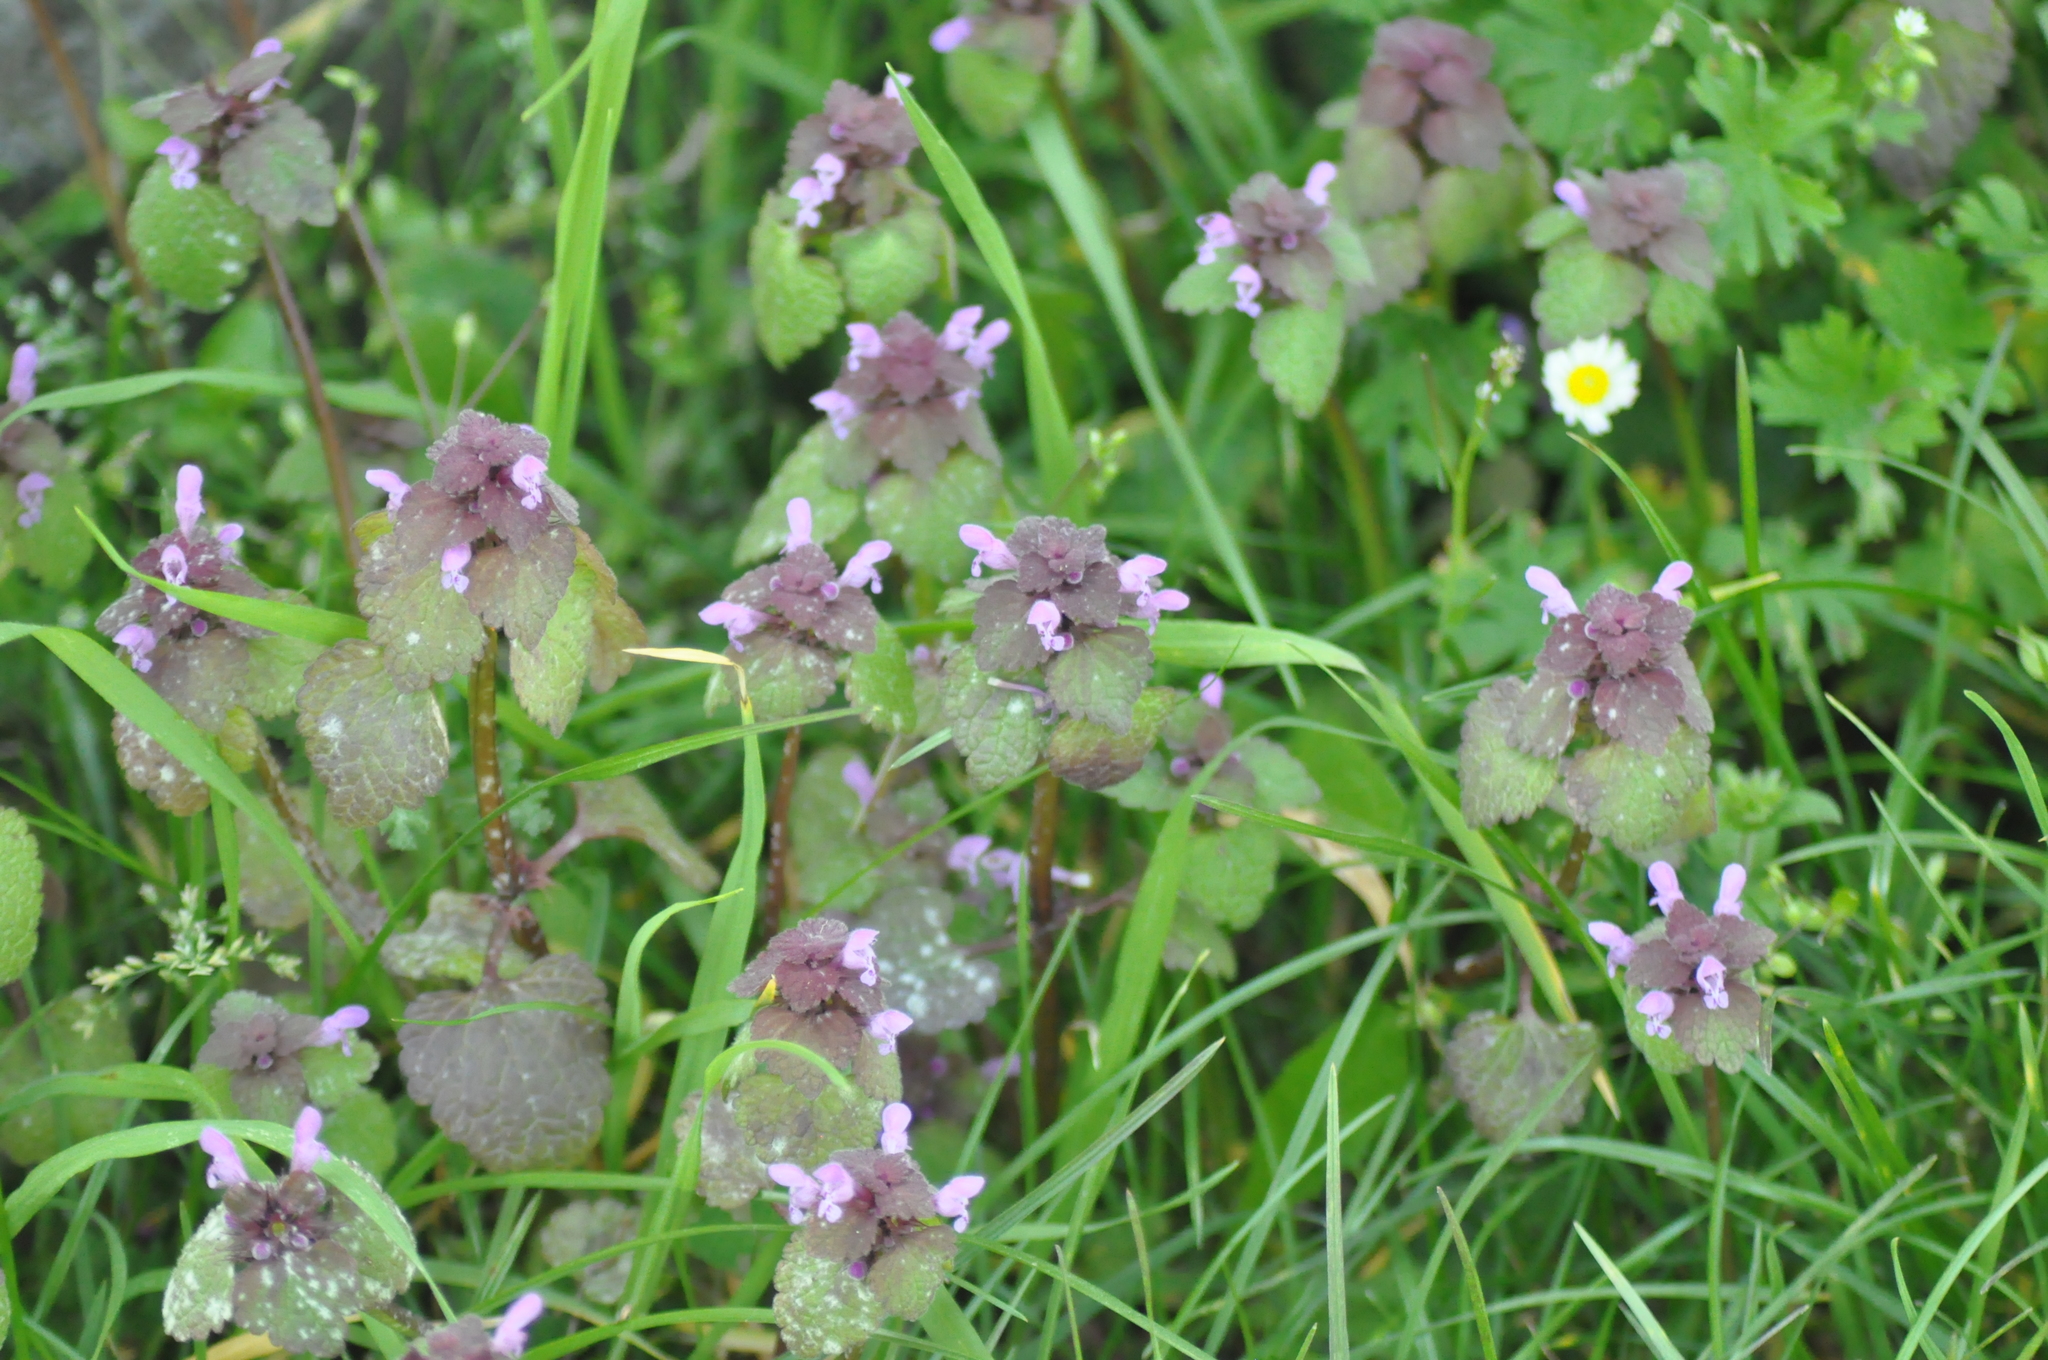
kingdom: Plantae
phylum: Tracheophyta
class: Magnoliopsida
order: Lamiales
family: Lamiaceae
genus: Lamium
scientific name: Lamium purpureum
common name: Red dead-nettle
